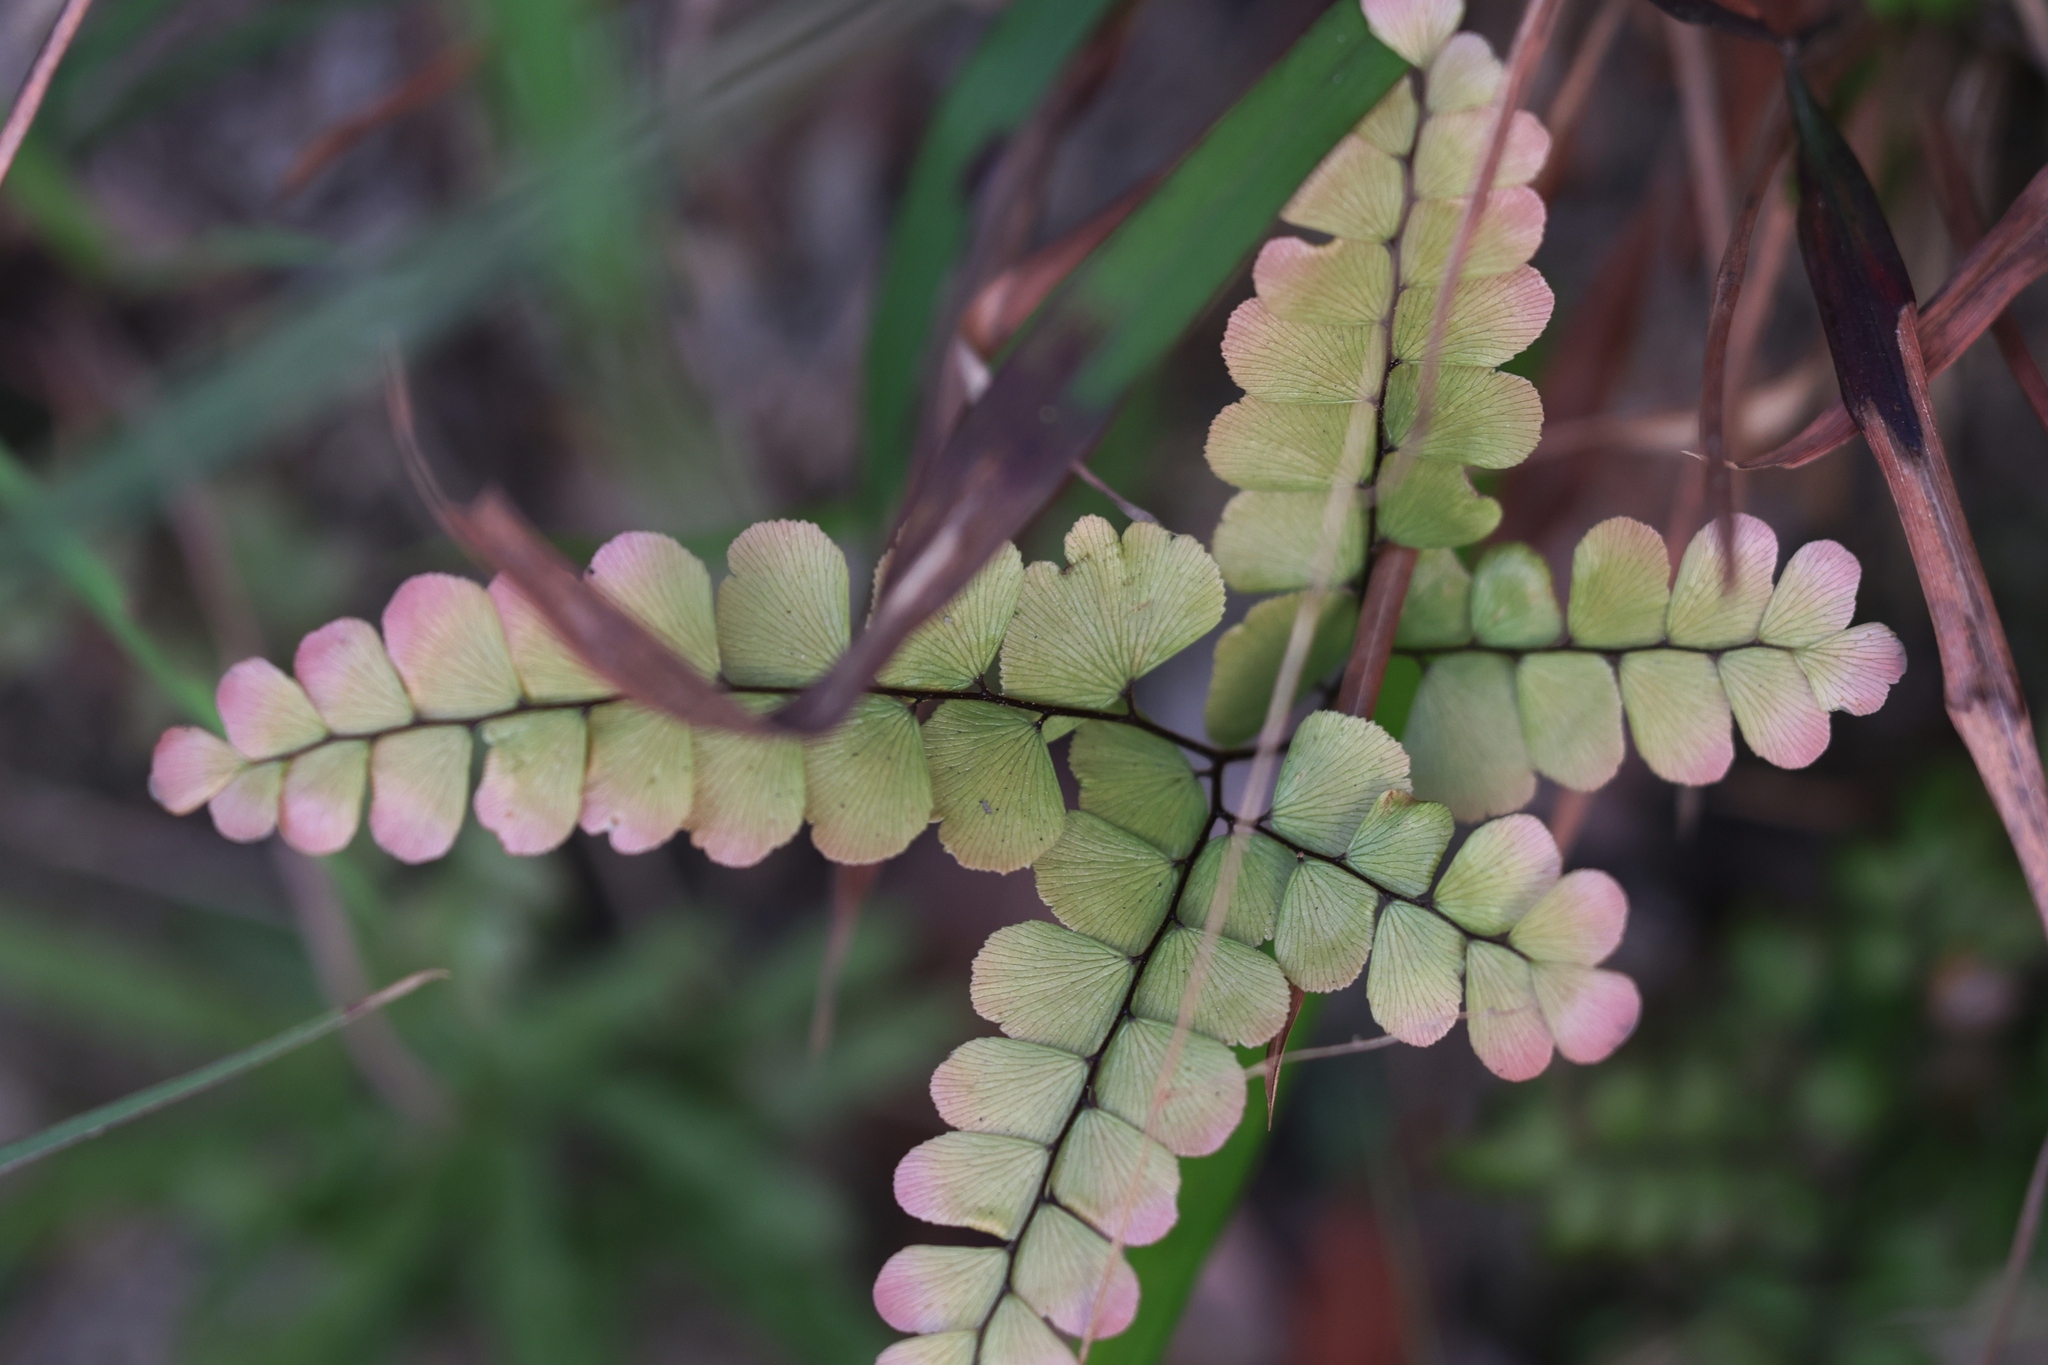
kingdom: Plantae
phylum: Tracheophyta
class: Polypodiopsida
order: Polypodiales
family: Pteridaceae
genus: Adiantum
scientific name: Adiantum capillus-veneris
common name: Maidenhair fern
